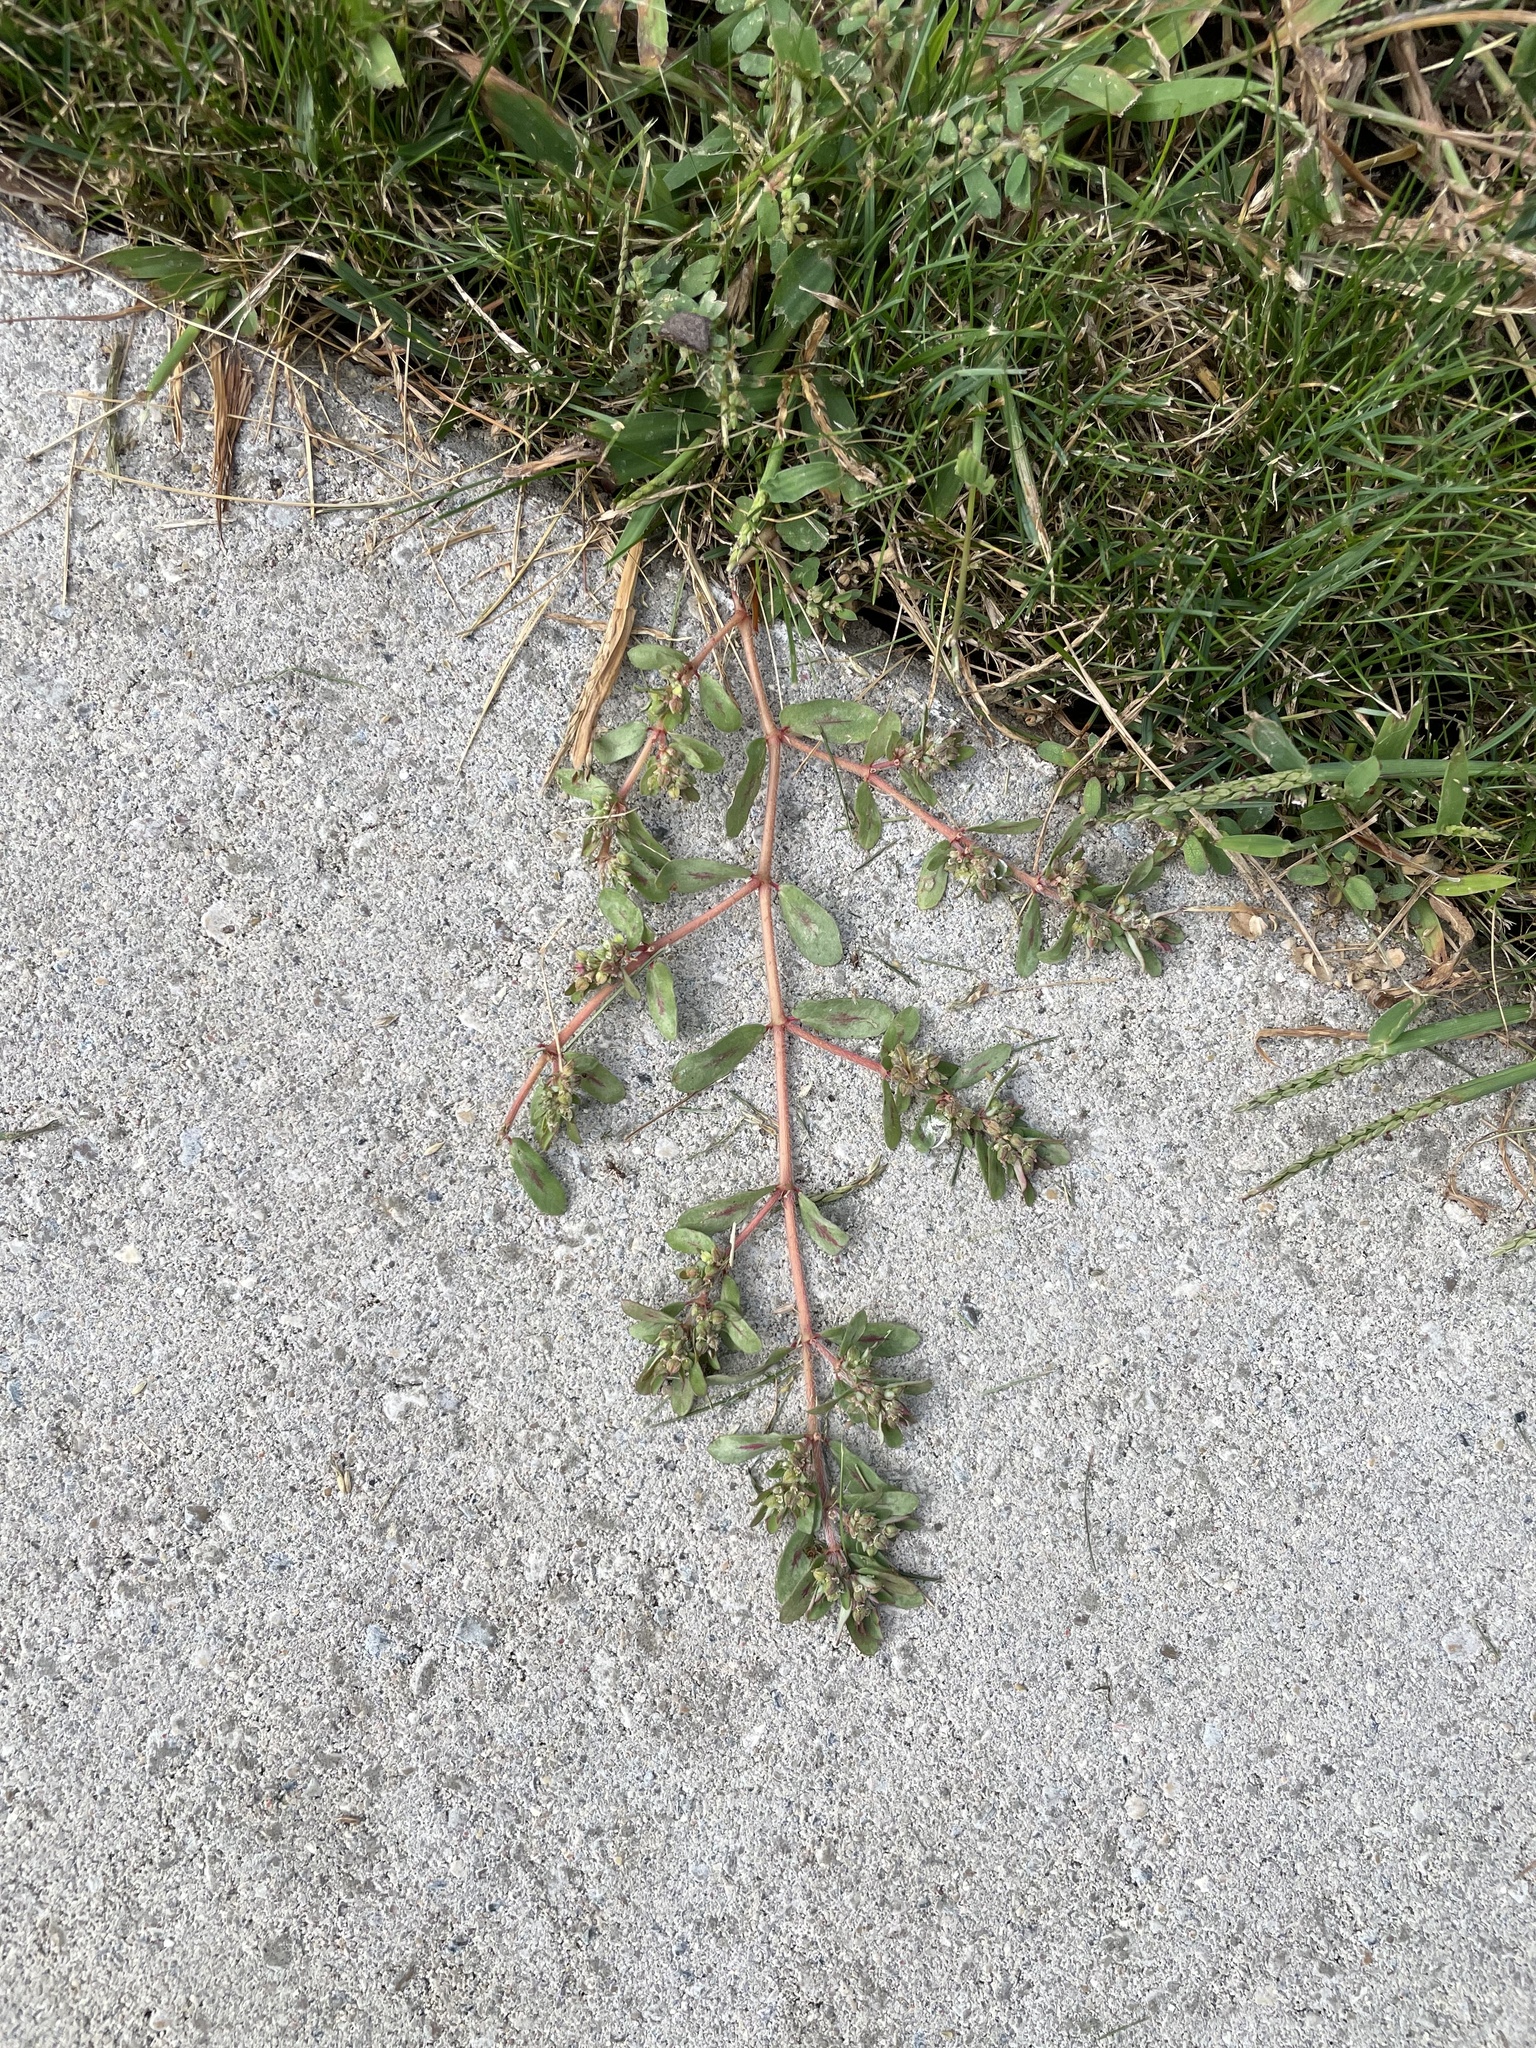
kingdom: Plantae
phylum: Tracheophyta
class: Magnoliopsida
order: Malpighiales
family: Euphorbiaceae
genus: Euphorbia
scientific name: Euphorbia maculata
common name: Spotted spurge
